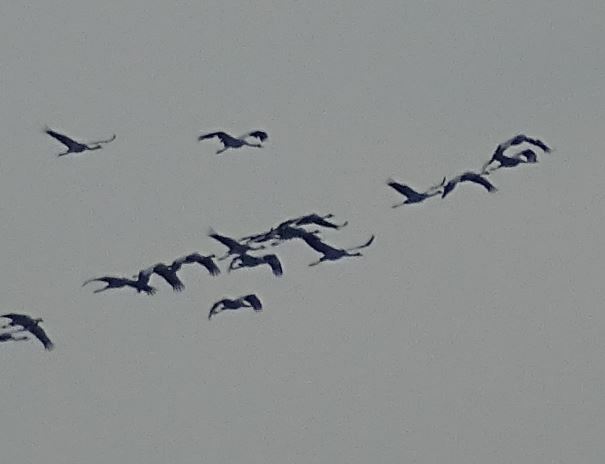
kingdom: Animalia
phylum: Chordata
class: Aves
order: Gruiformes
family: Gruidae
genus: Grus
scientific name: Grus grus
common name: Common crane
